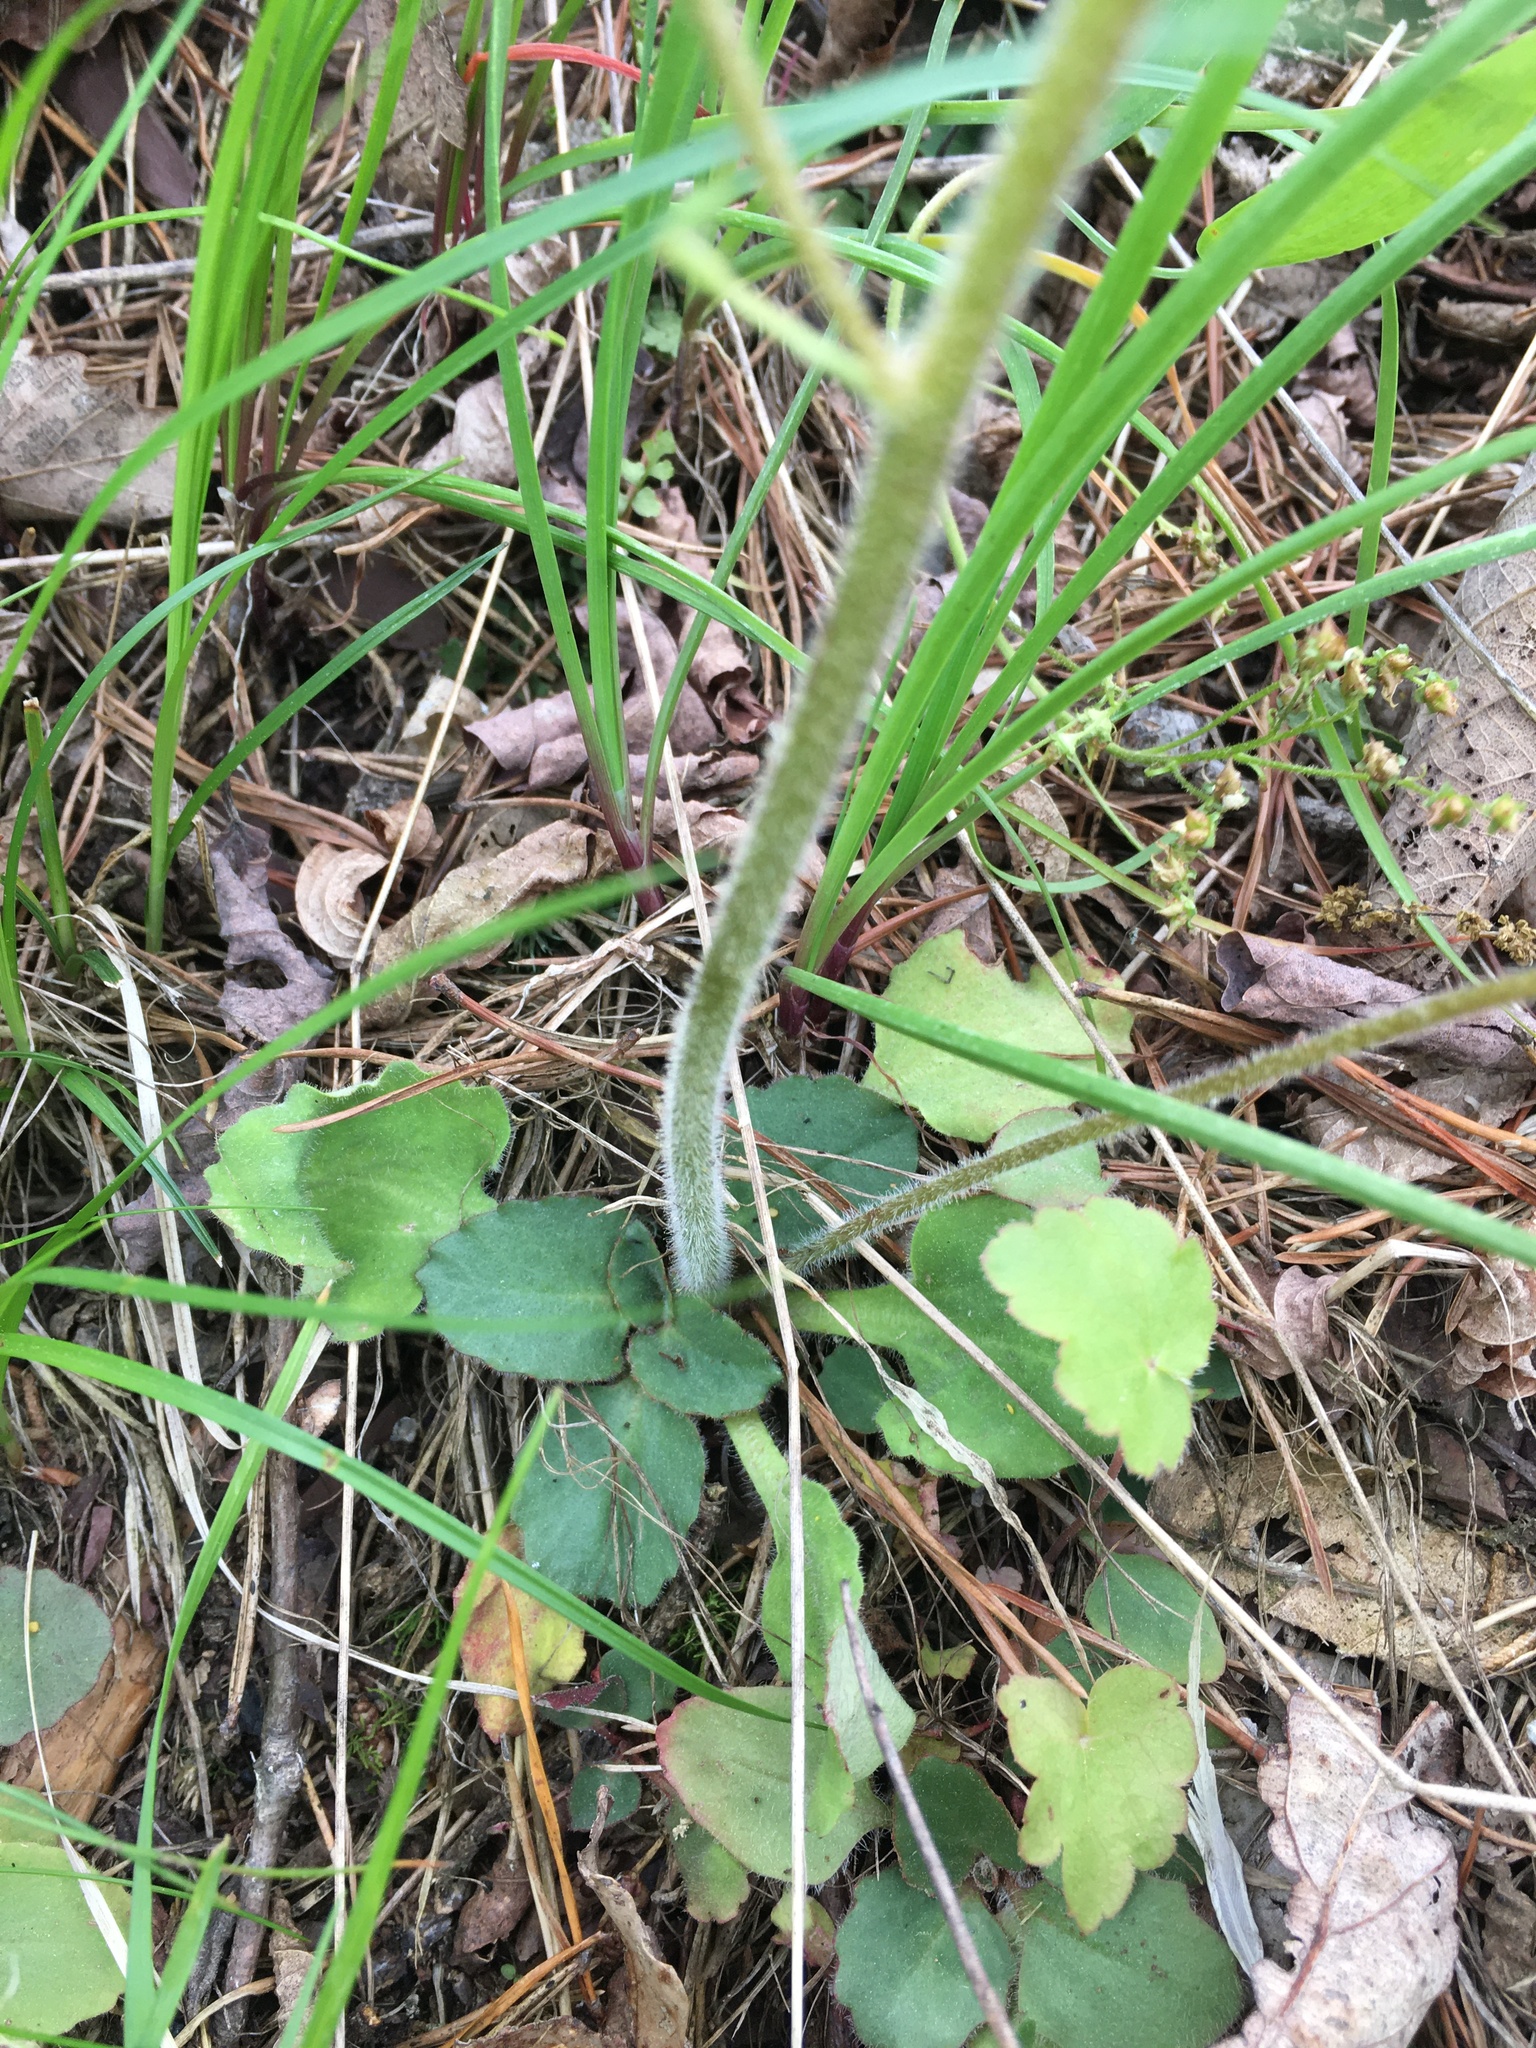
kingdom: Plantae
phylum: Tracheophyta
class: Magnoliopsida
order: Saxifragales
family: Saxifragaceae
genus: Micranthes
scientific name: Micranthes virginiensis
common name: Early saxifrage
